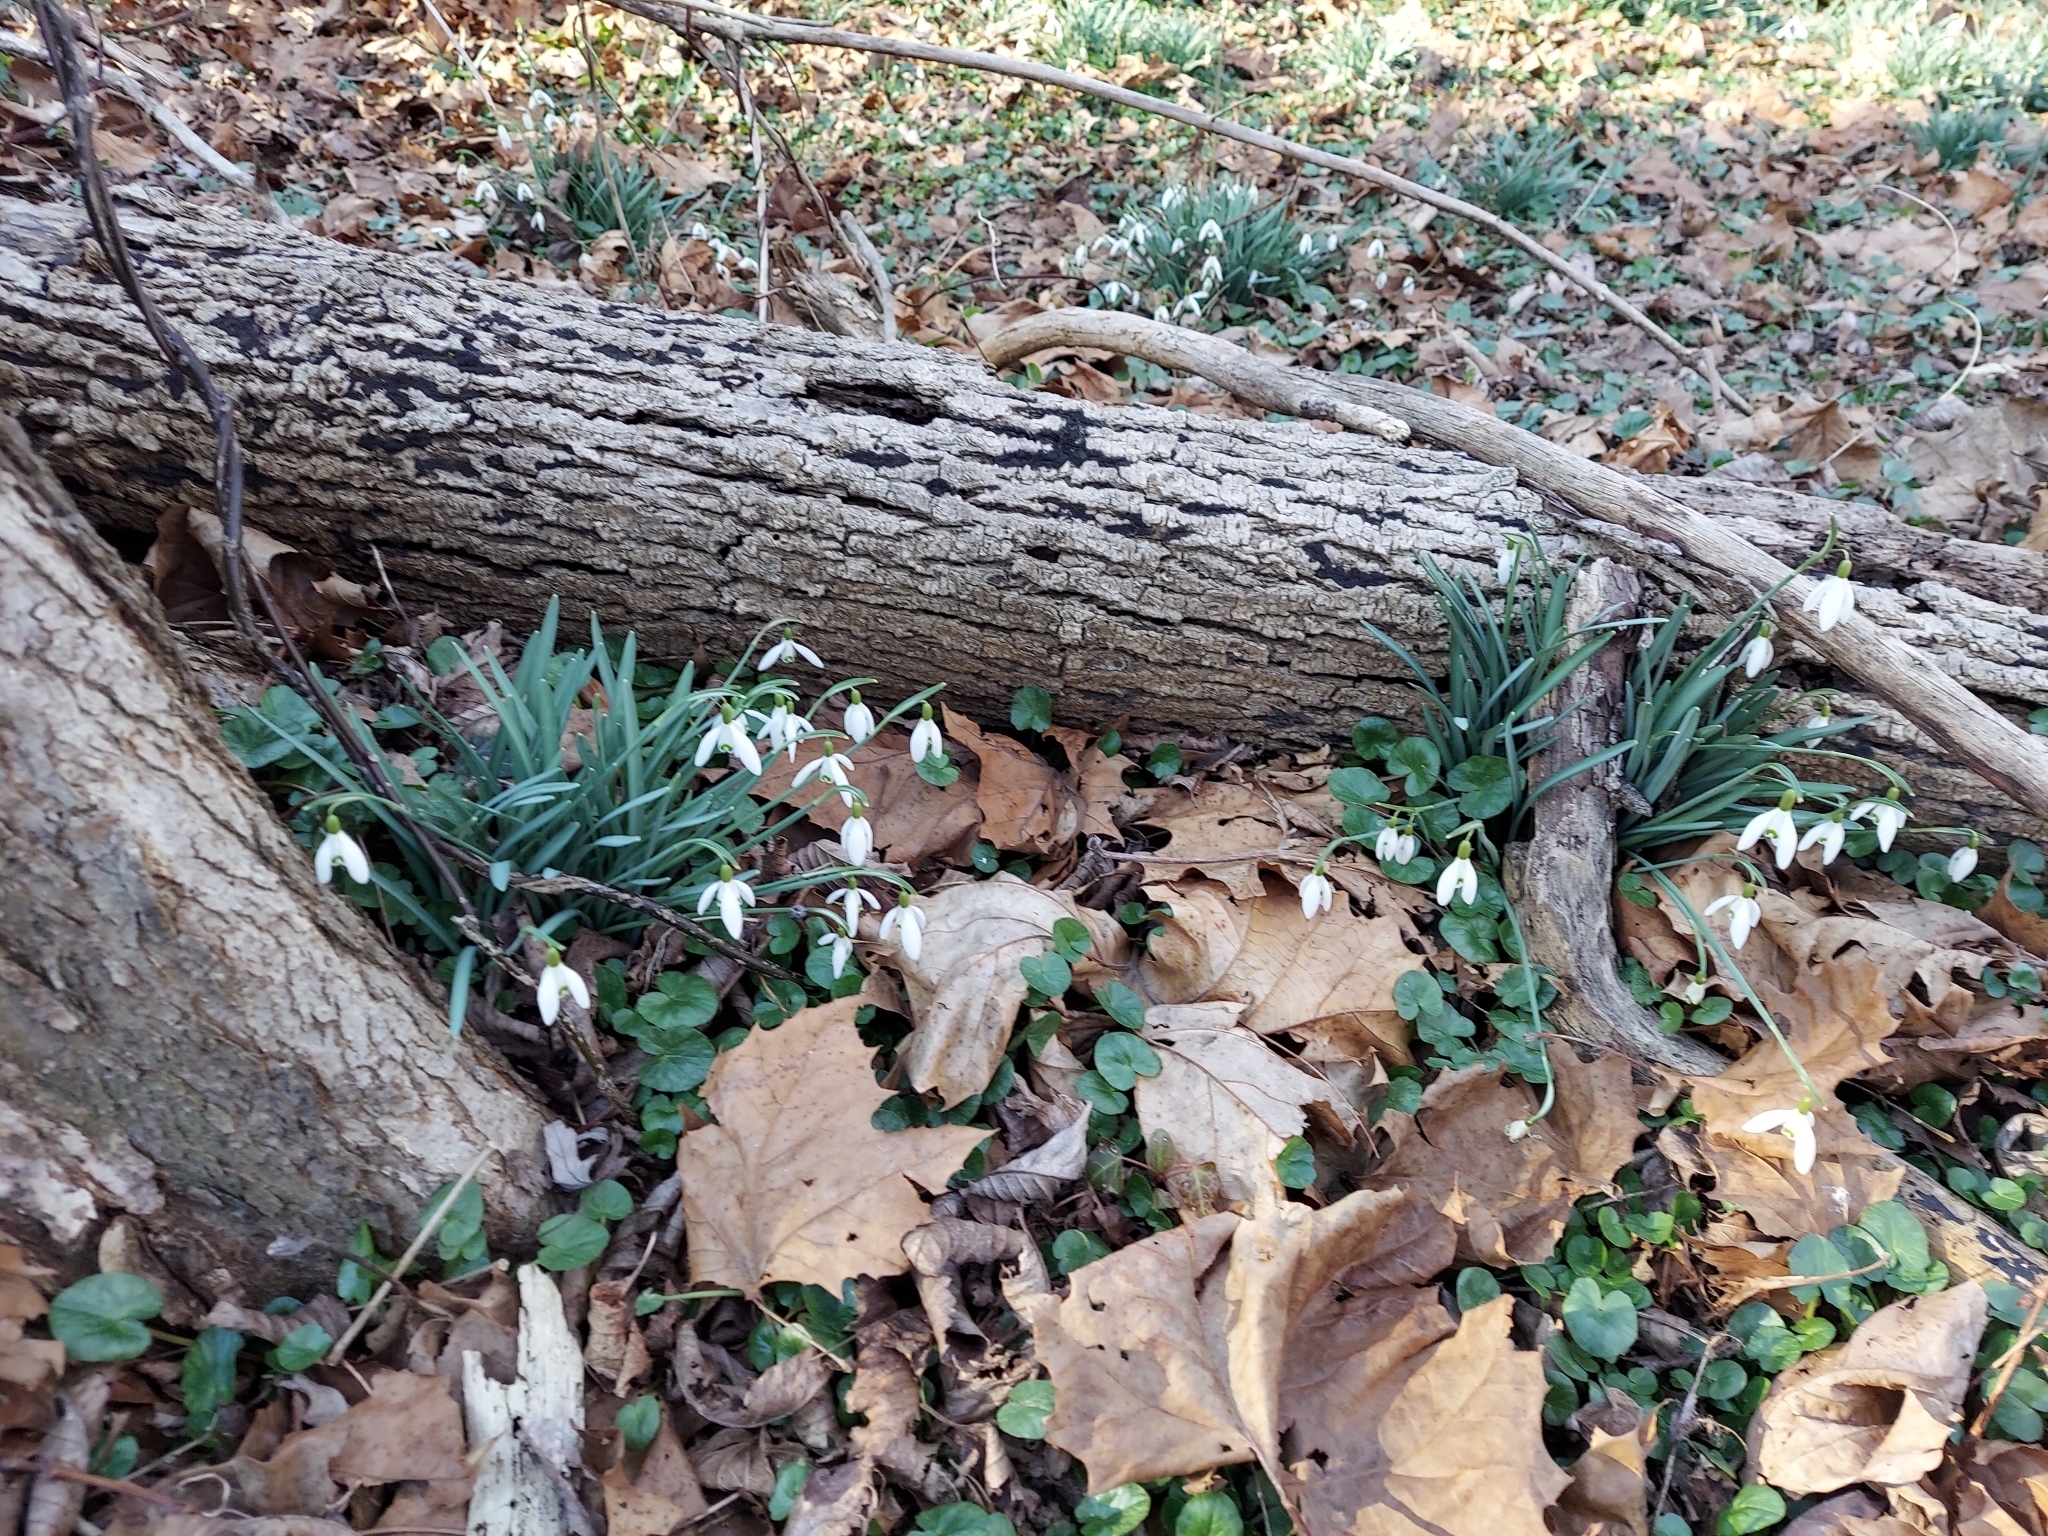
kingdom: Plantae
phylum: Tracheophyta
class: Liliopsida
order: Asparagales
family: Amaryllidaceae
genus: Galanthus
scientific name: Galanthus nivalis
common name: Snowdrop
